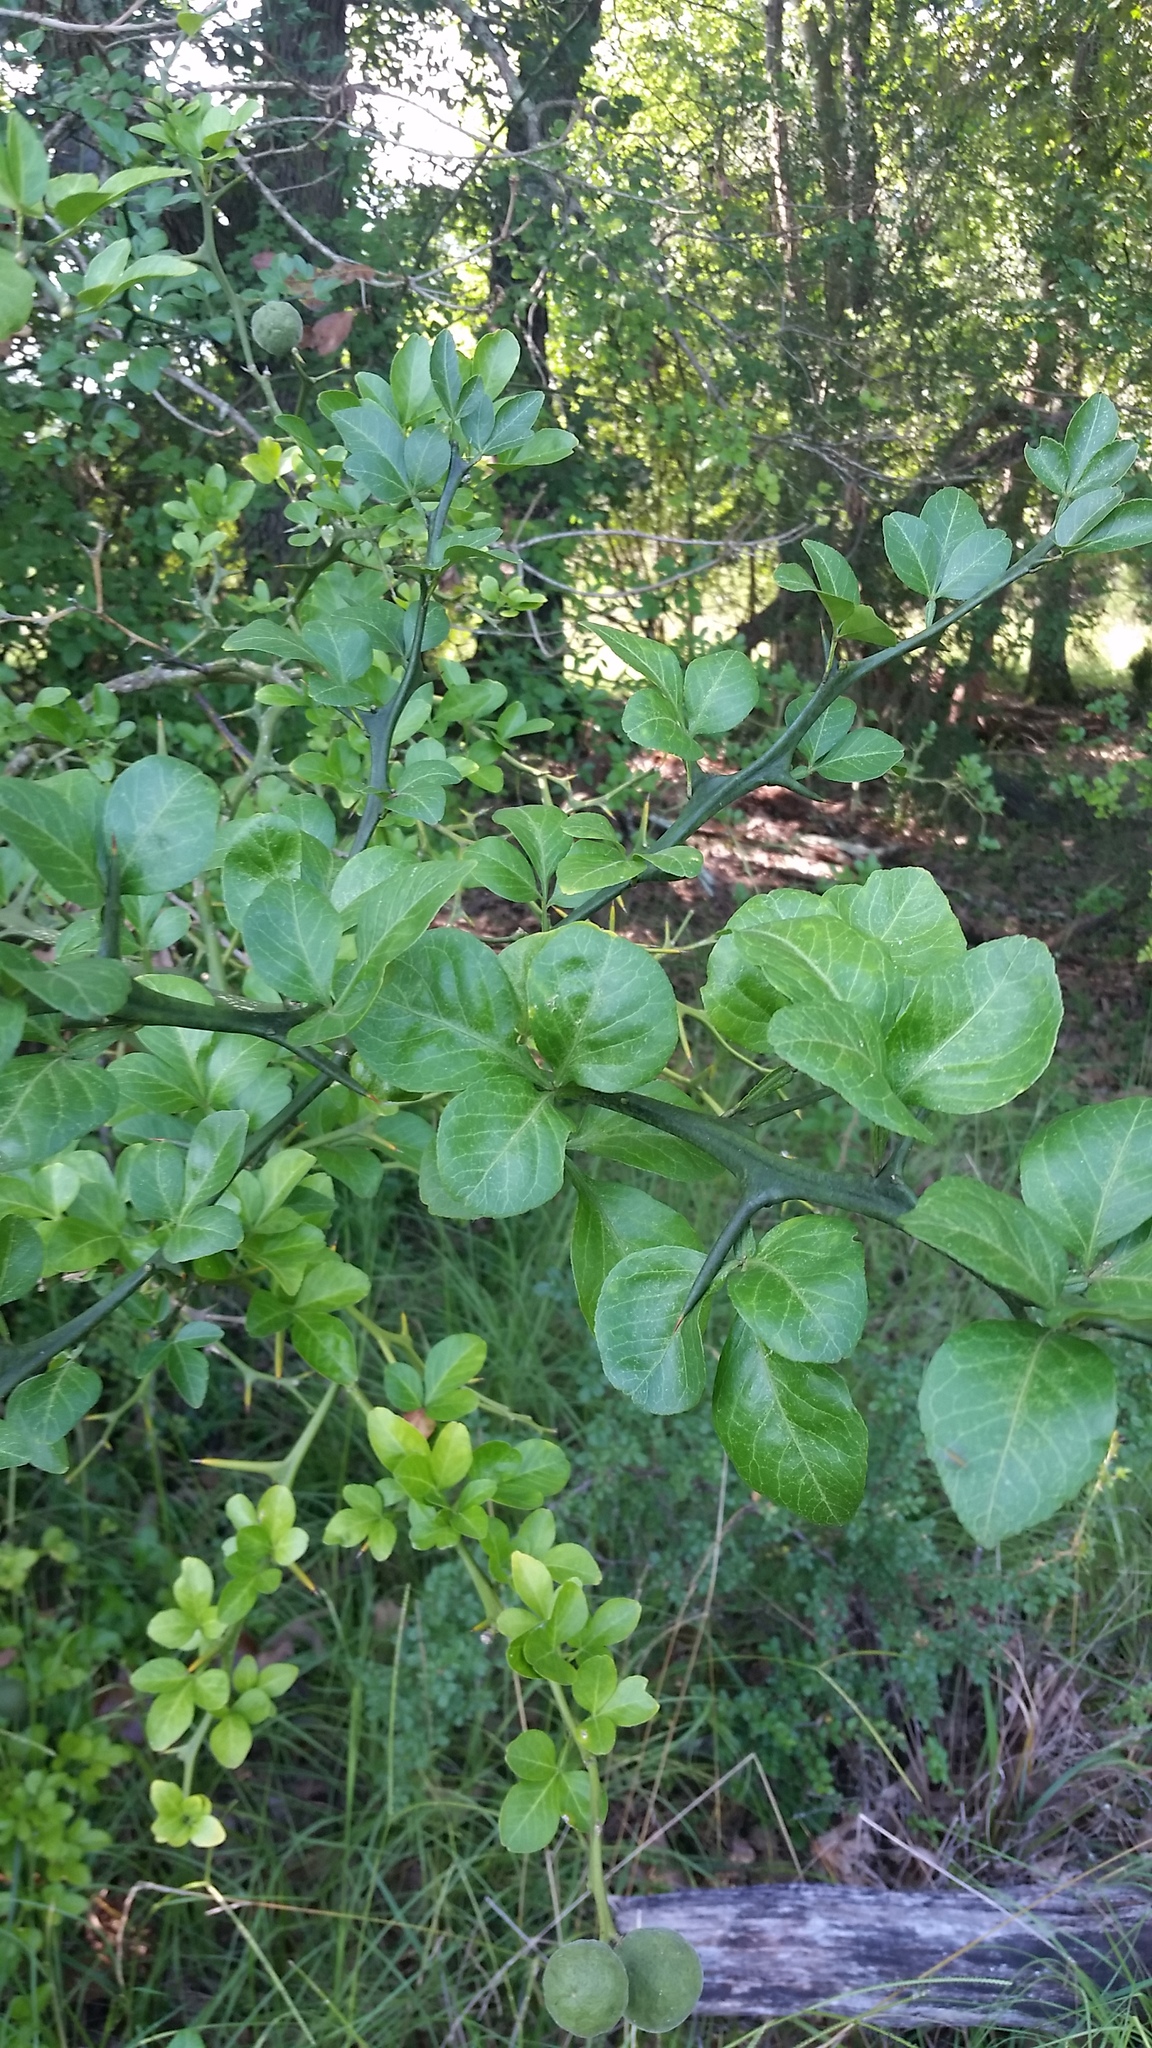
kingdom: Plantae
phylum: Tracheophyta
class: Magnoliopsida
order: Sapindales
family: Rutaceae
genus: Citrus
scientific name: Citrus trifoliata
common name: Japanese bitter-orange
